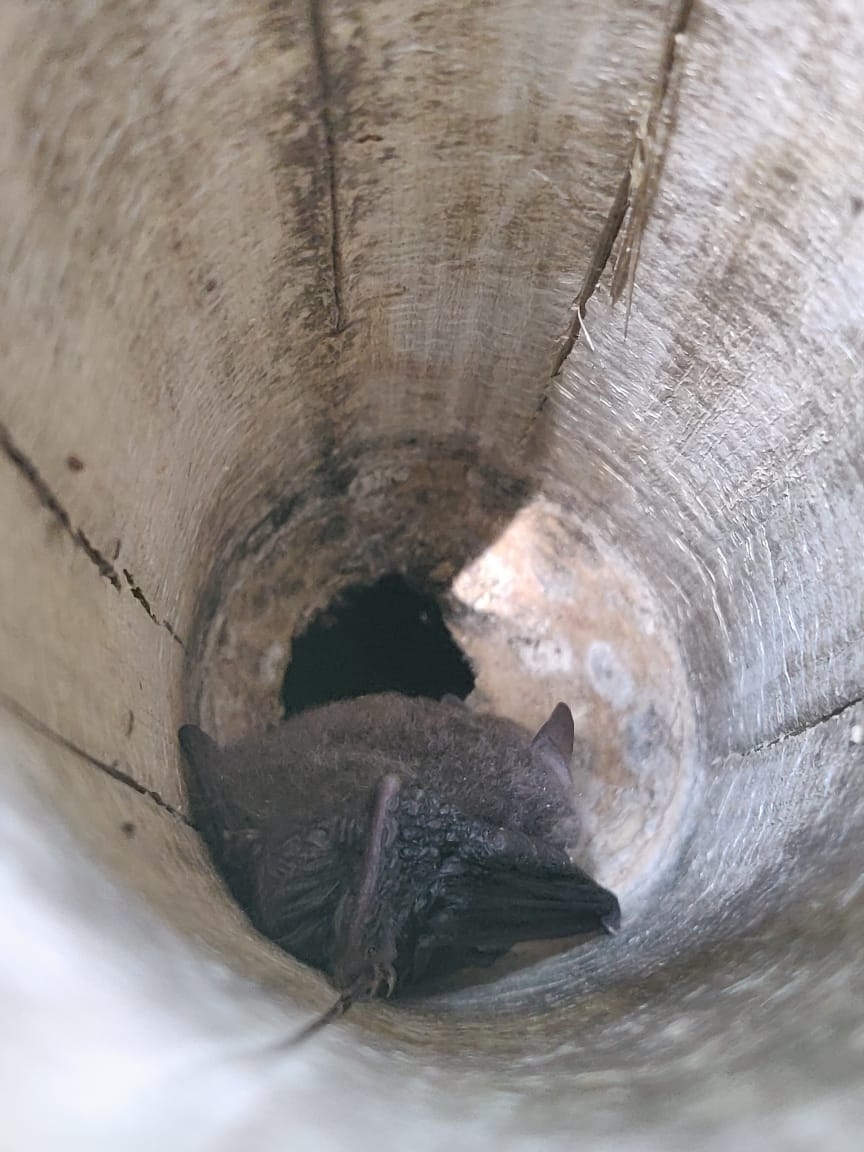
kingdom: Animalia
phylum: Chordata
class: Mammalia
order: Chiroptera
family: Vespertilionidae
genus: Kerivoula
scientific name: Kerivoula hardwickii
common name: Hardwicke's woolly bat
